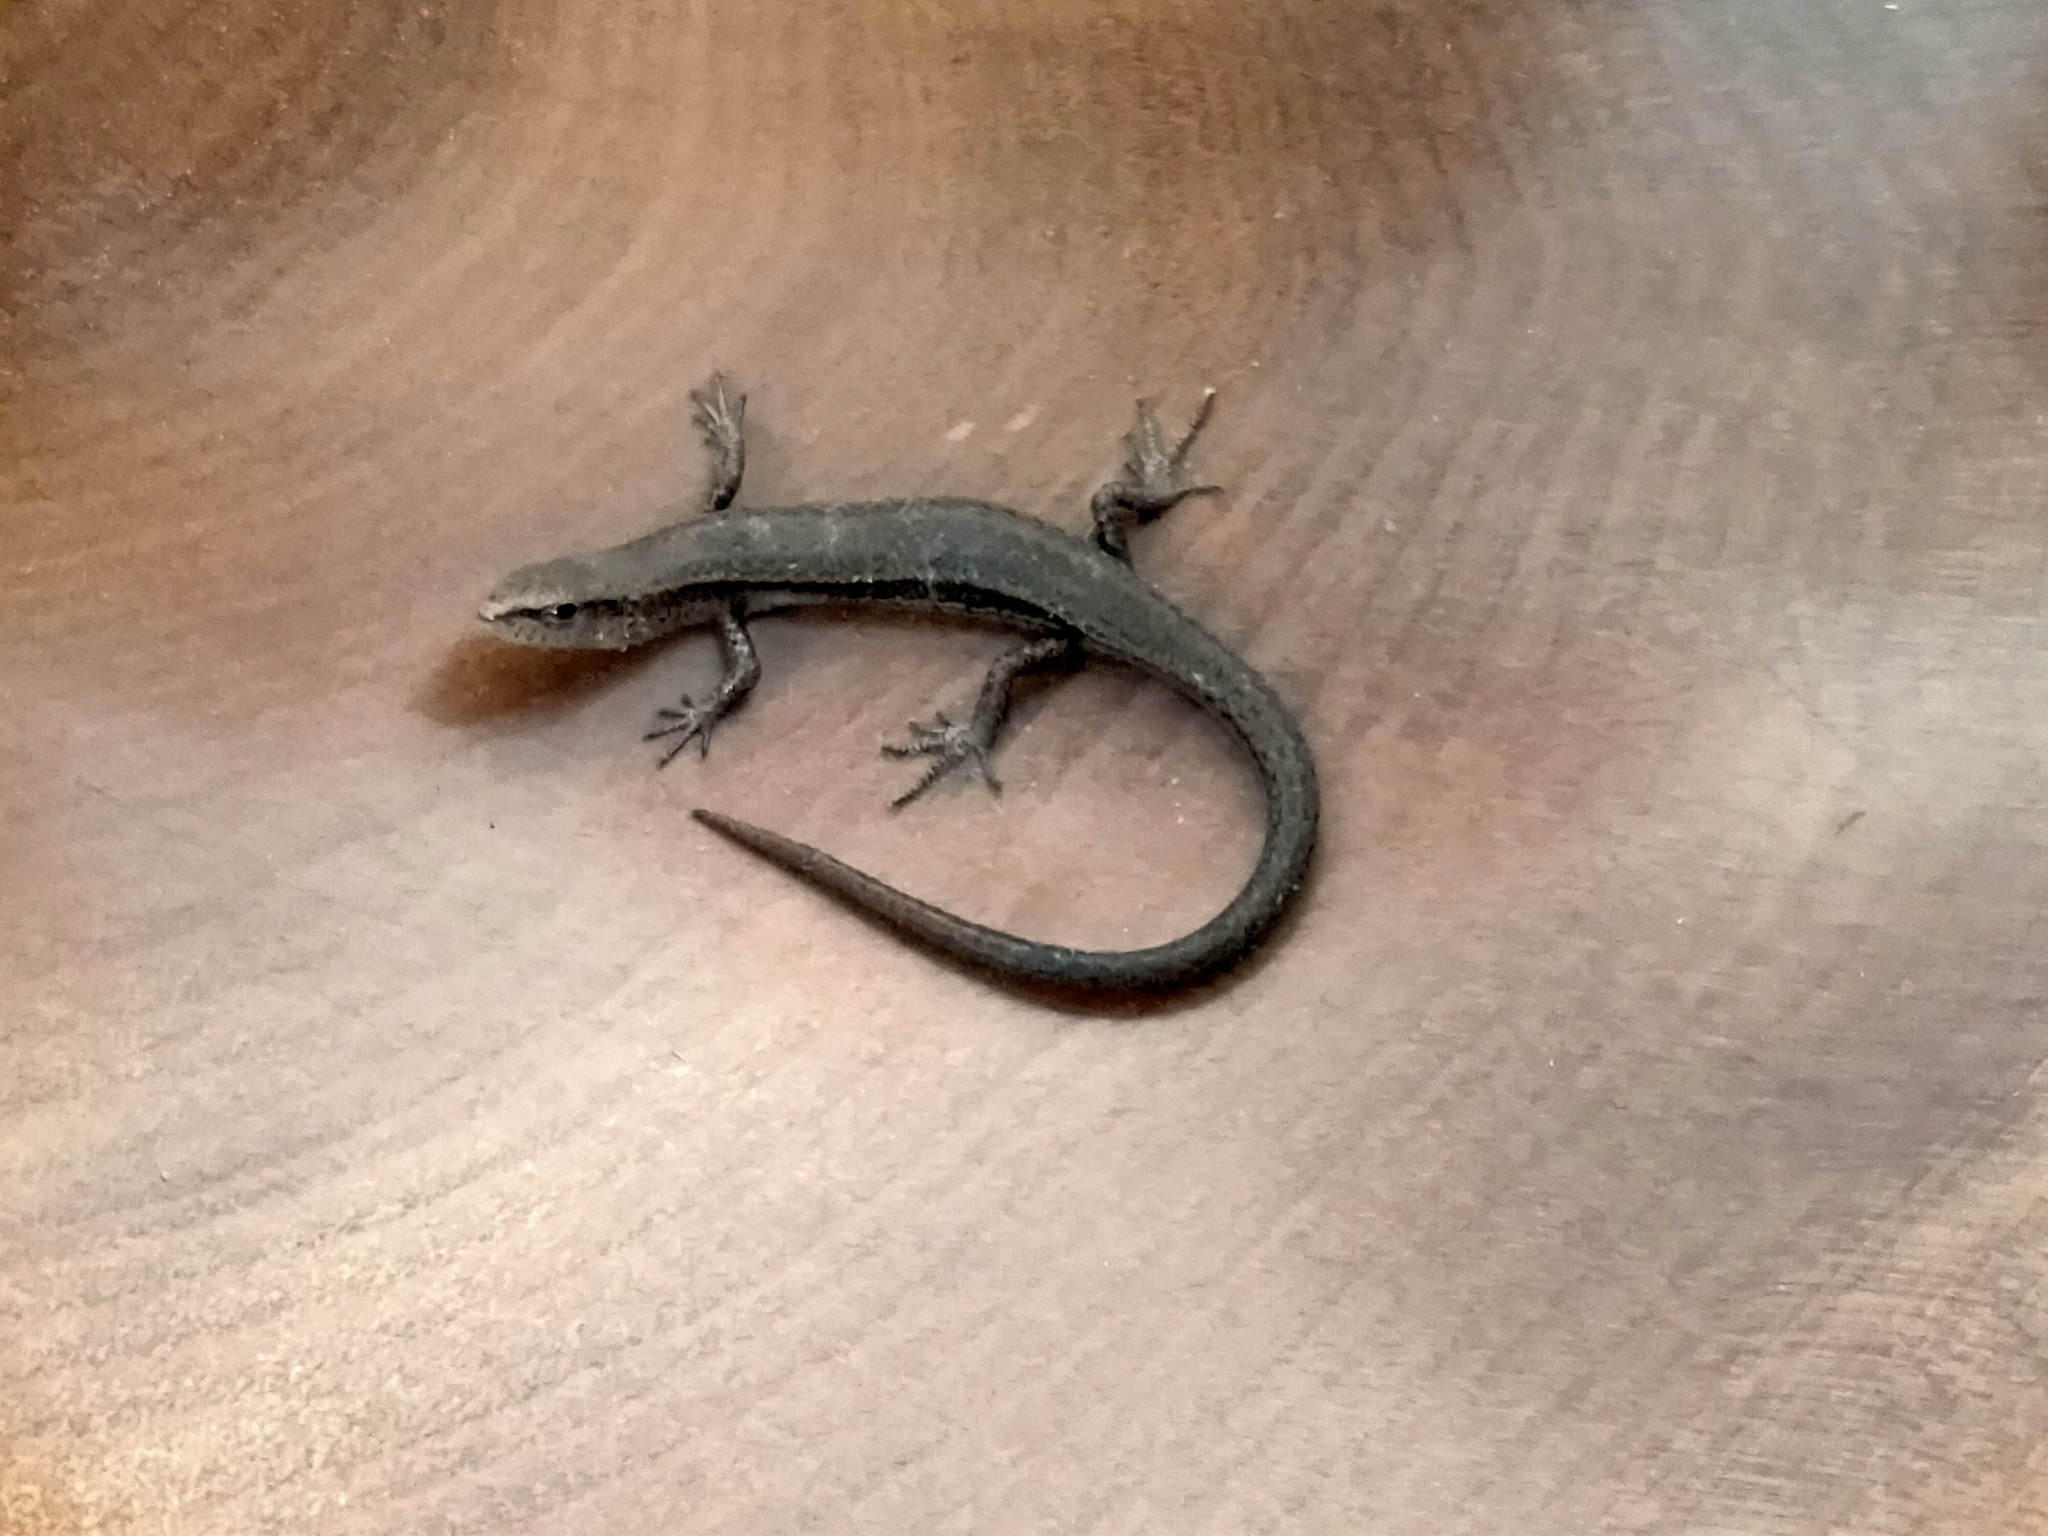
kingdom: Animalia
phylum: Chordata
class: Squamata
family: Scincidae
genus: Lampropholis
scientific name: Lampropholis delicata
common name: Plague skink
